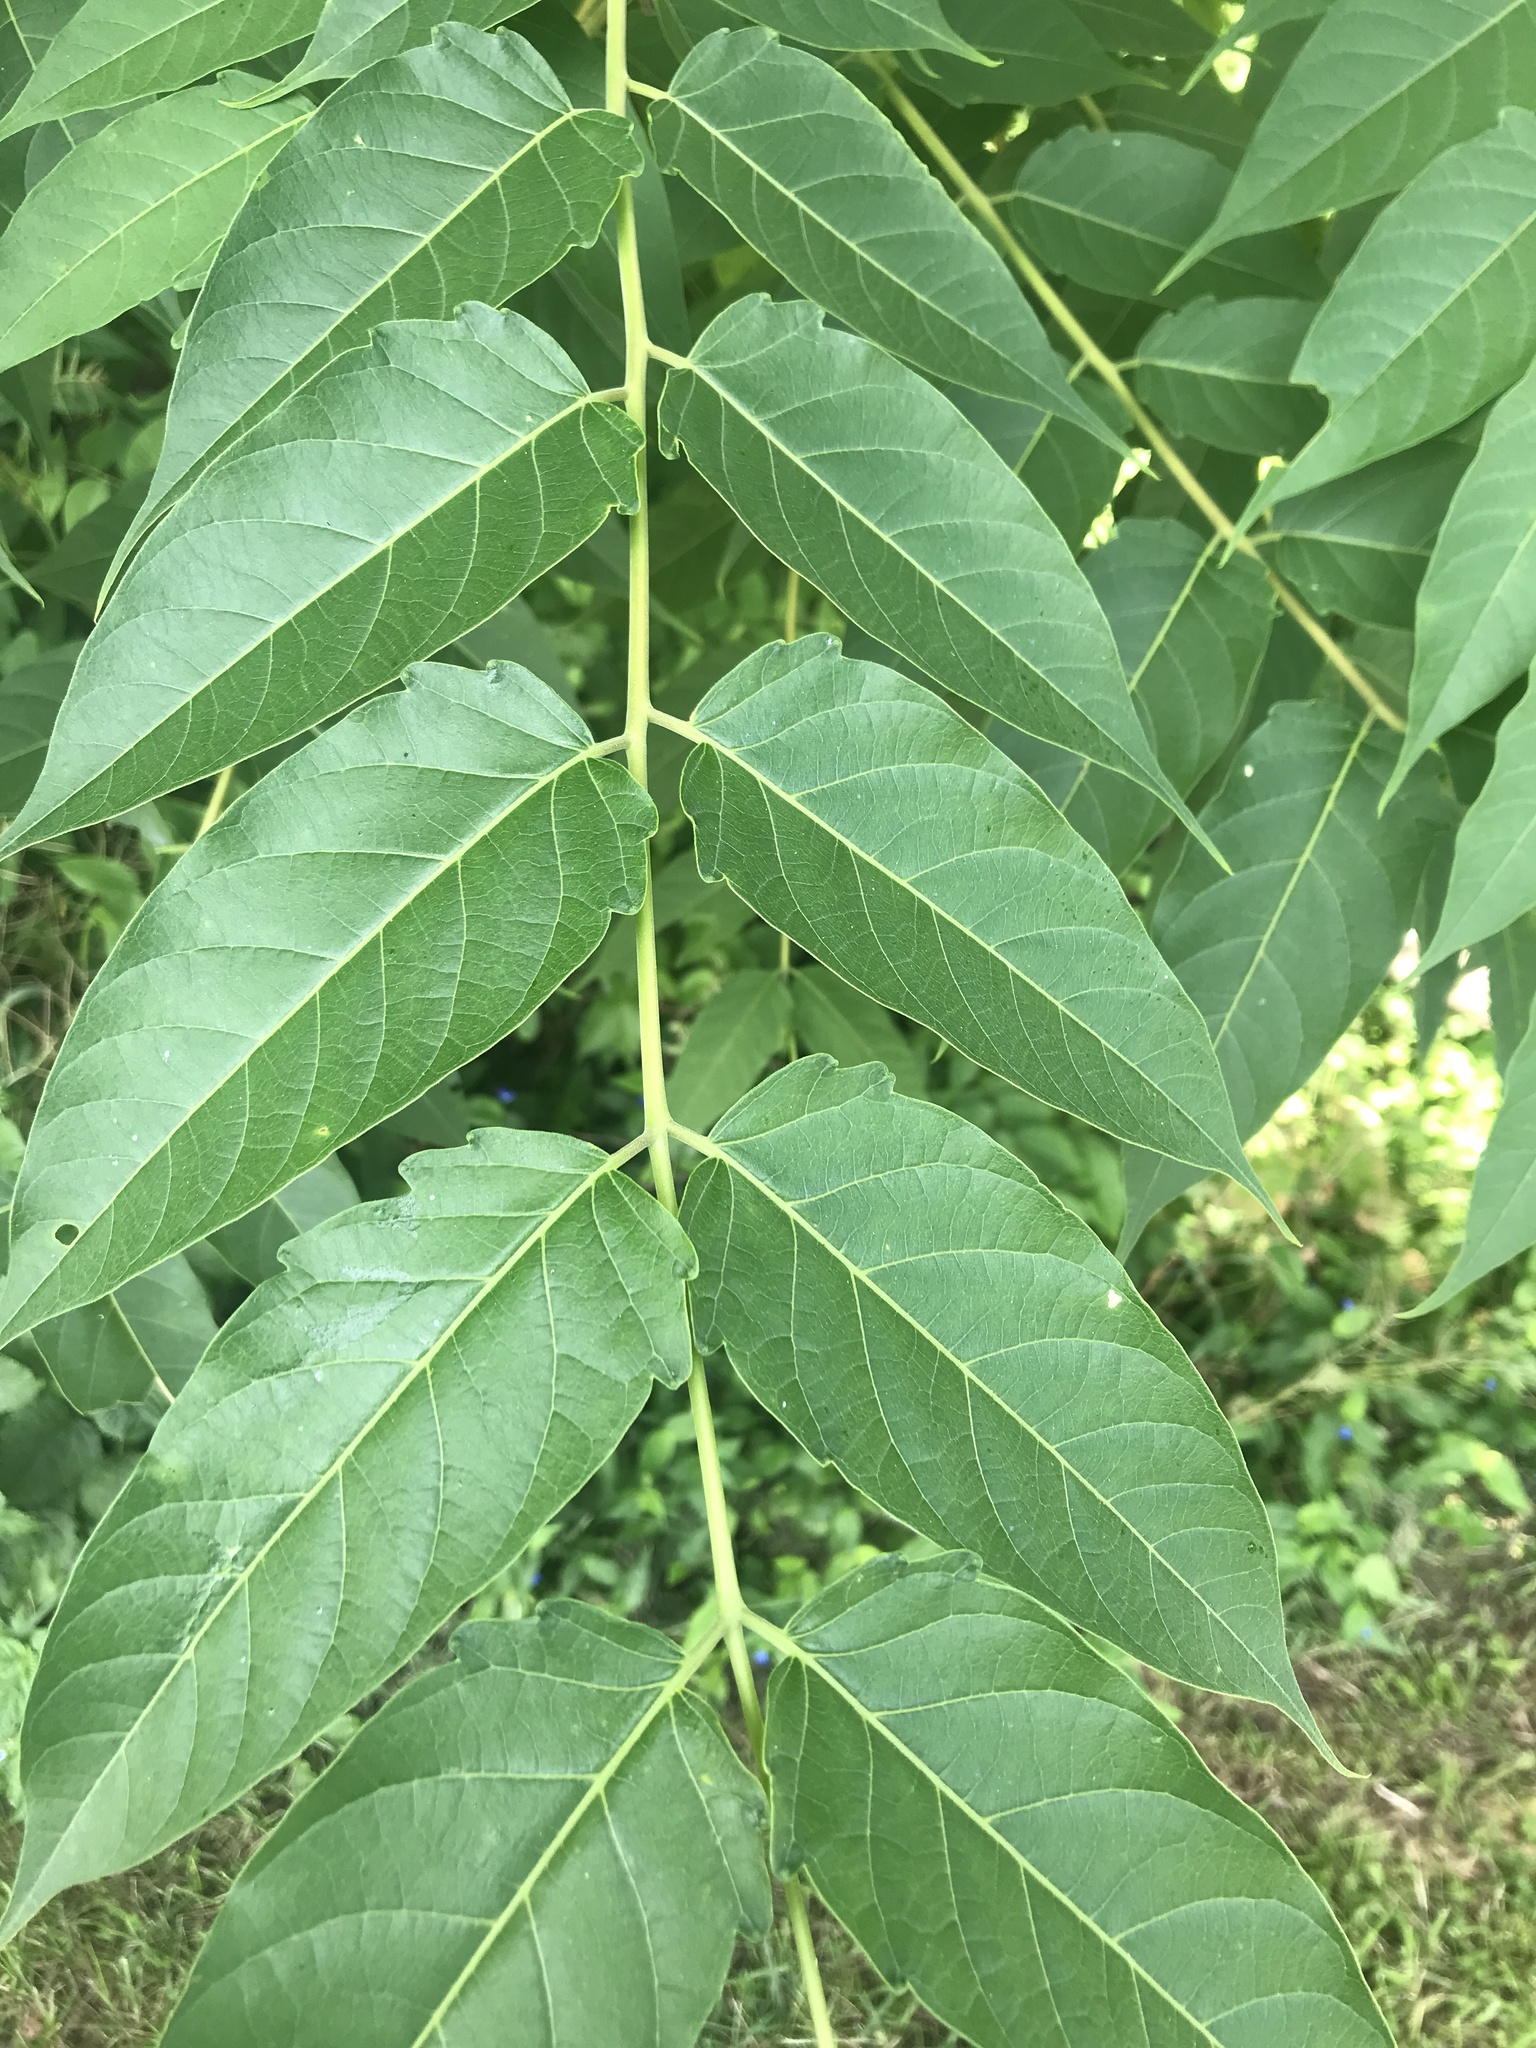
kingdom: Plantae
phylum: Tracheophyta
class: Magnoliopsida
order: Sapindales
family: Simaroubaceae
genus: Ailanthus
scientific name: Ailanthus altissima
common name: Tree-of-heaven
